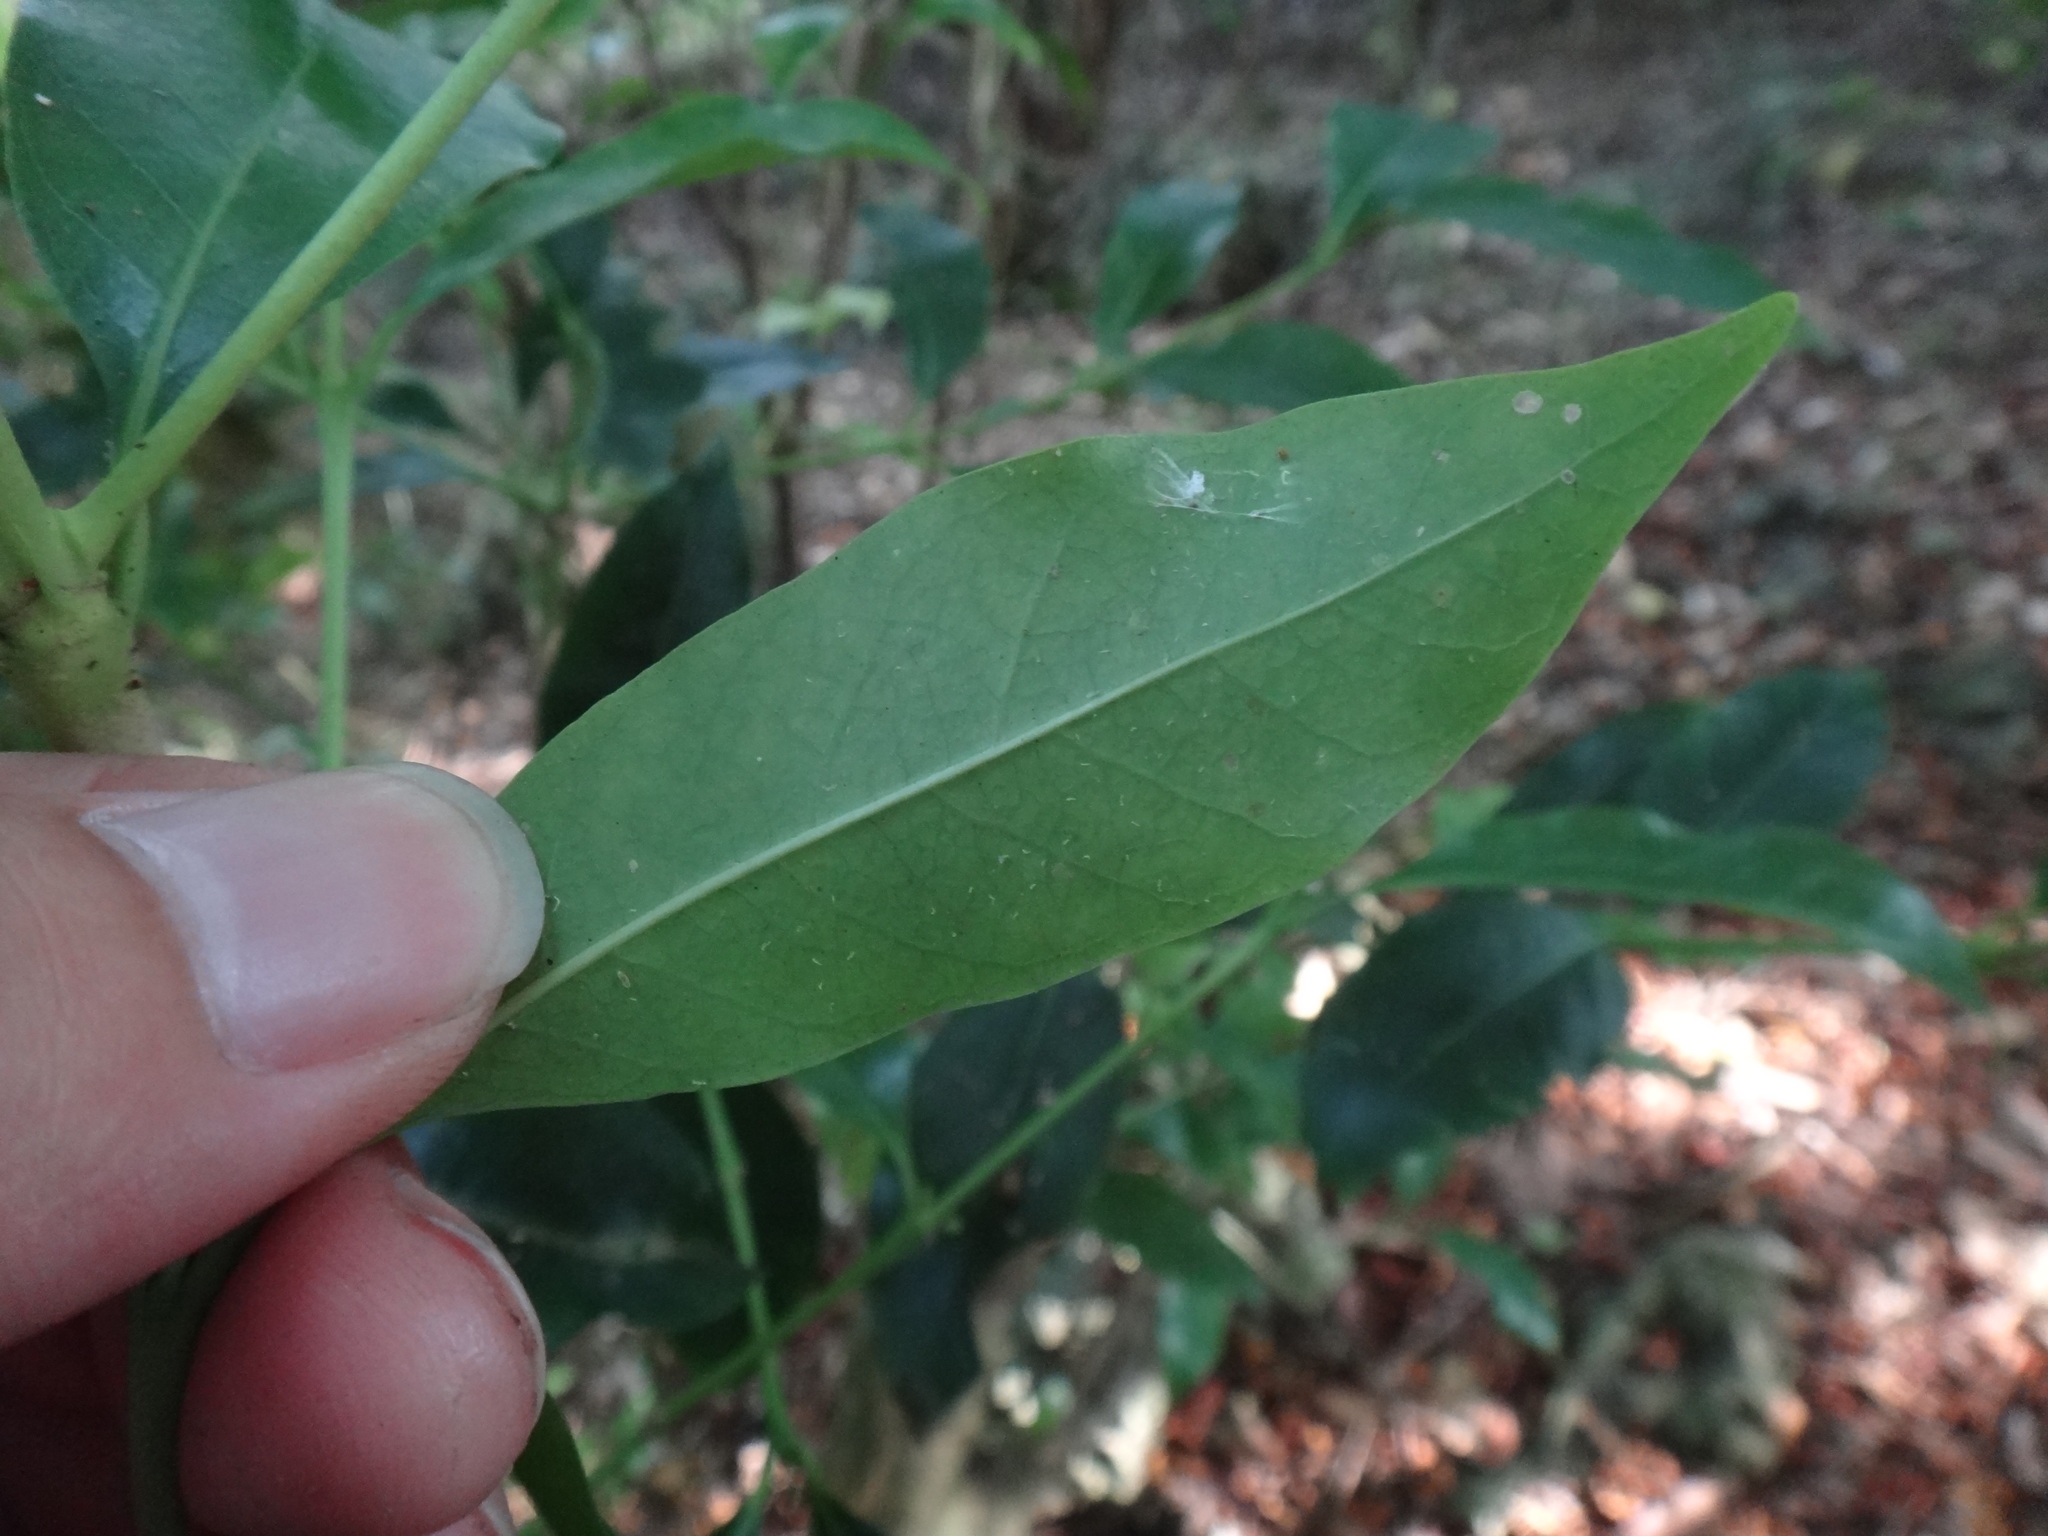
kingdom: Plantae
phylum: Tracheophyta
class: Magnoliopsida
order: Gentianales
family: Rubiaceae
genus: Diplospora
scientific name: Diplospora dubia
